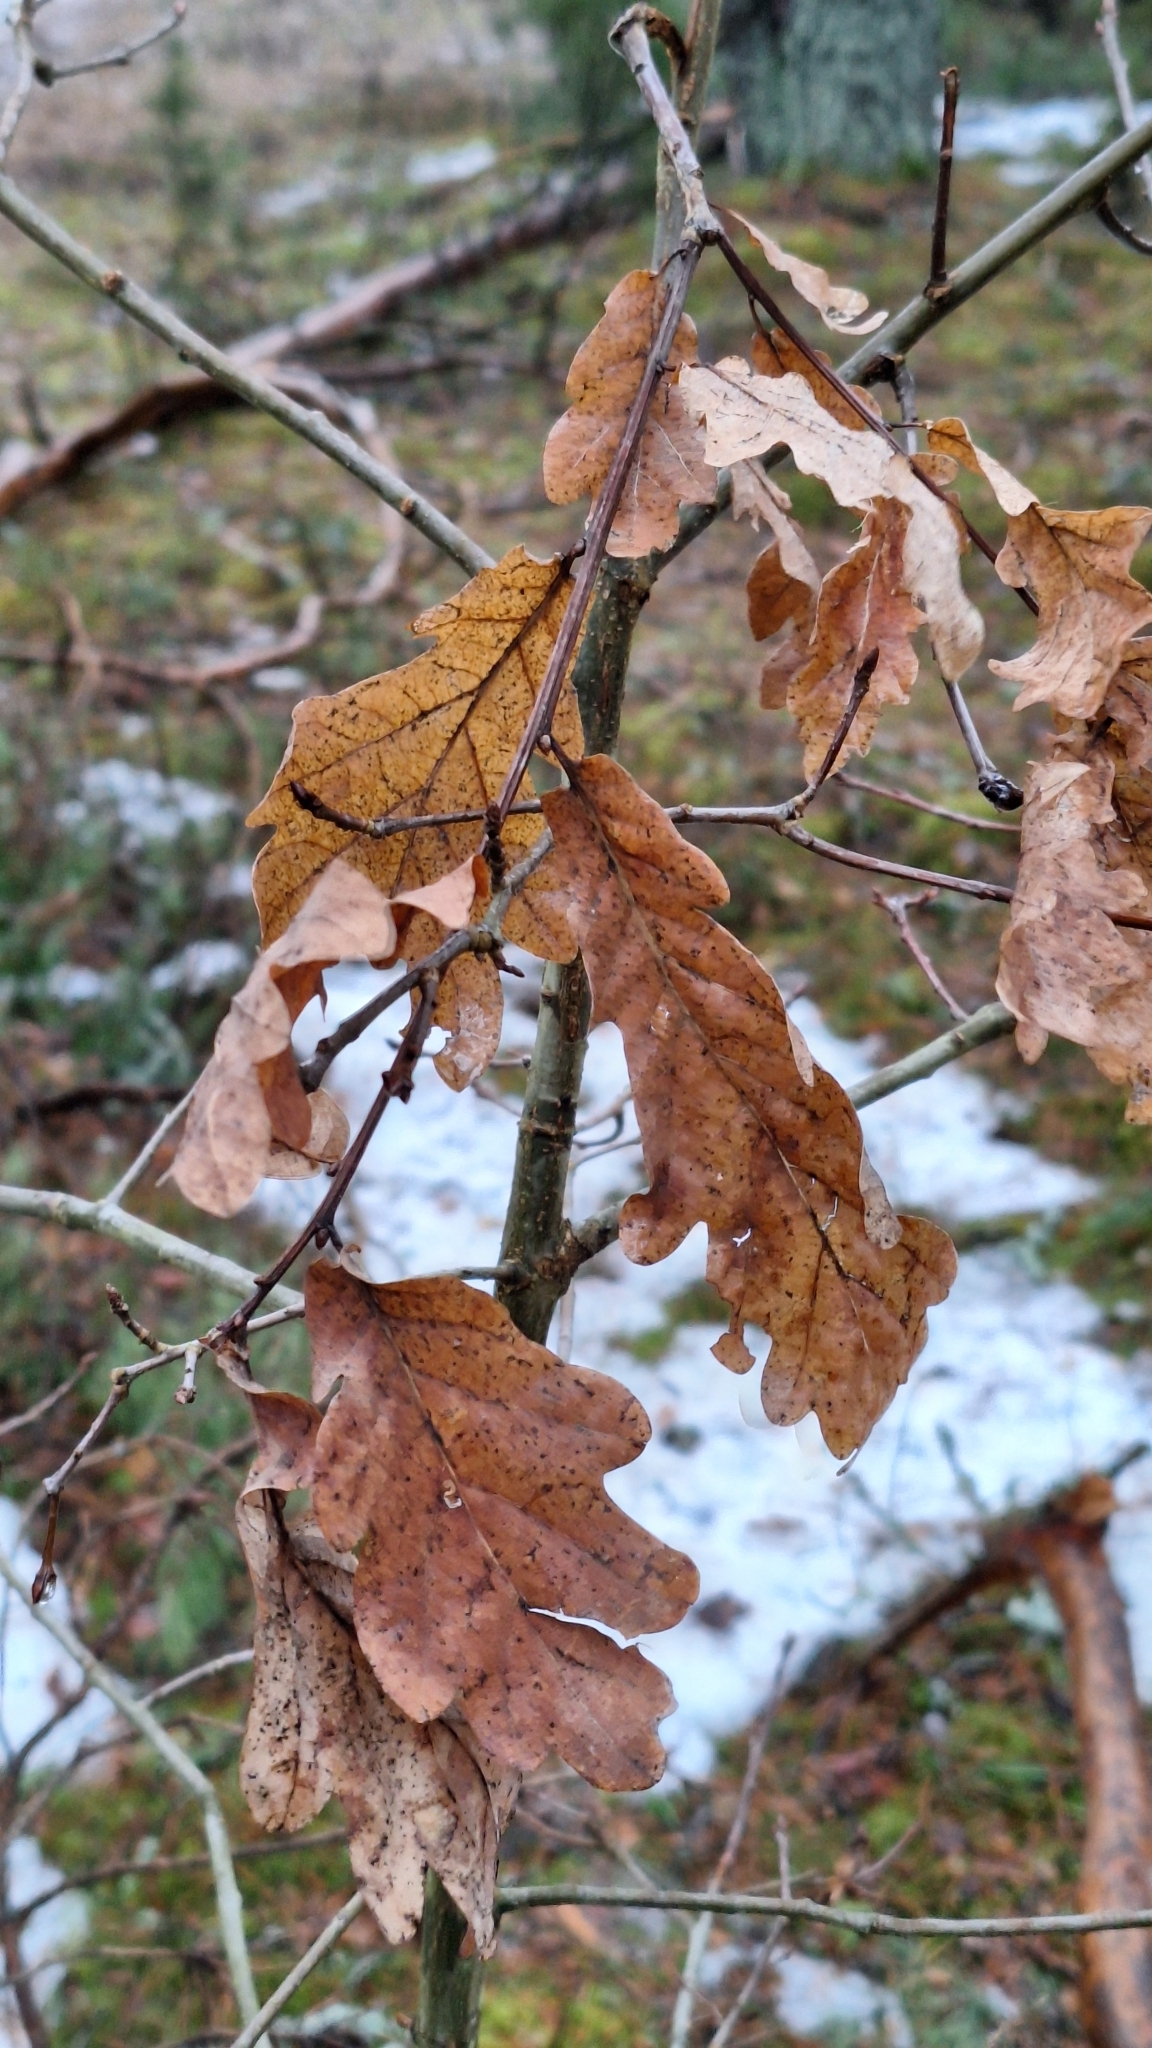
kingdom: Plantae
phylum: Tracheophyta
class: Magnoliopsida
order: Fagales
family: Fagaceae
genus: Quercus
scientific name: Quercus robur
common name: Pedunculate oak
